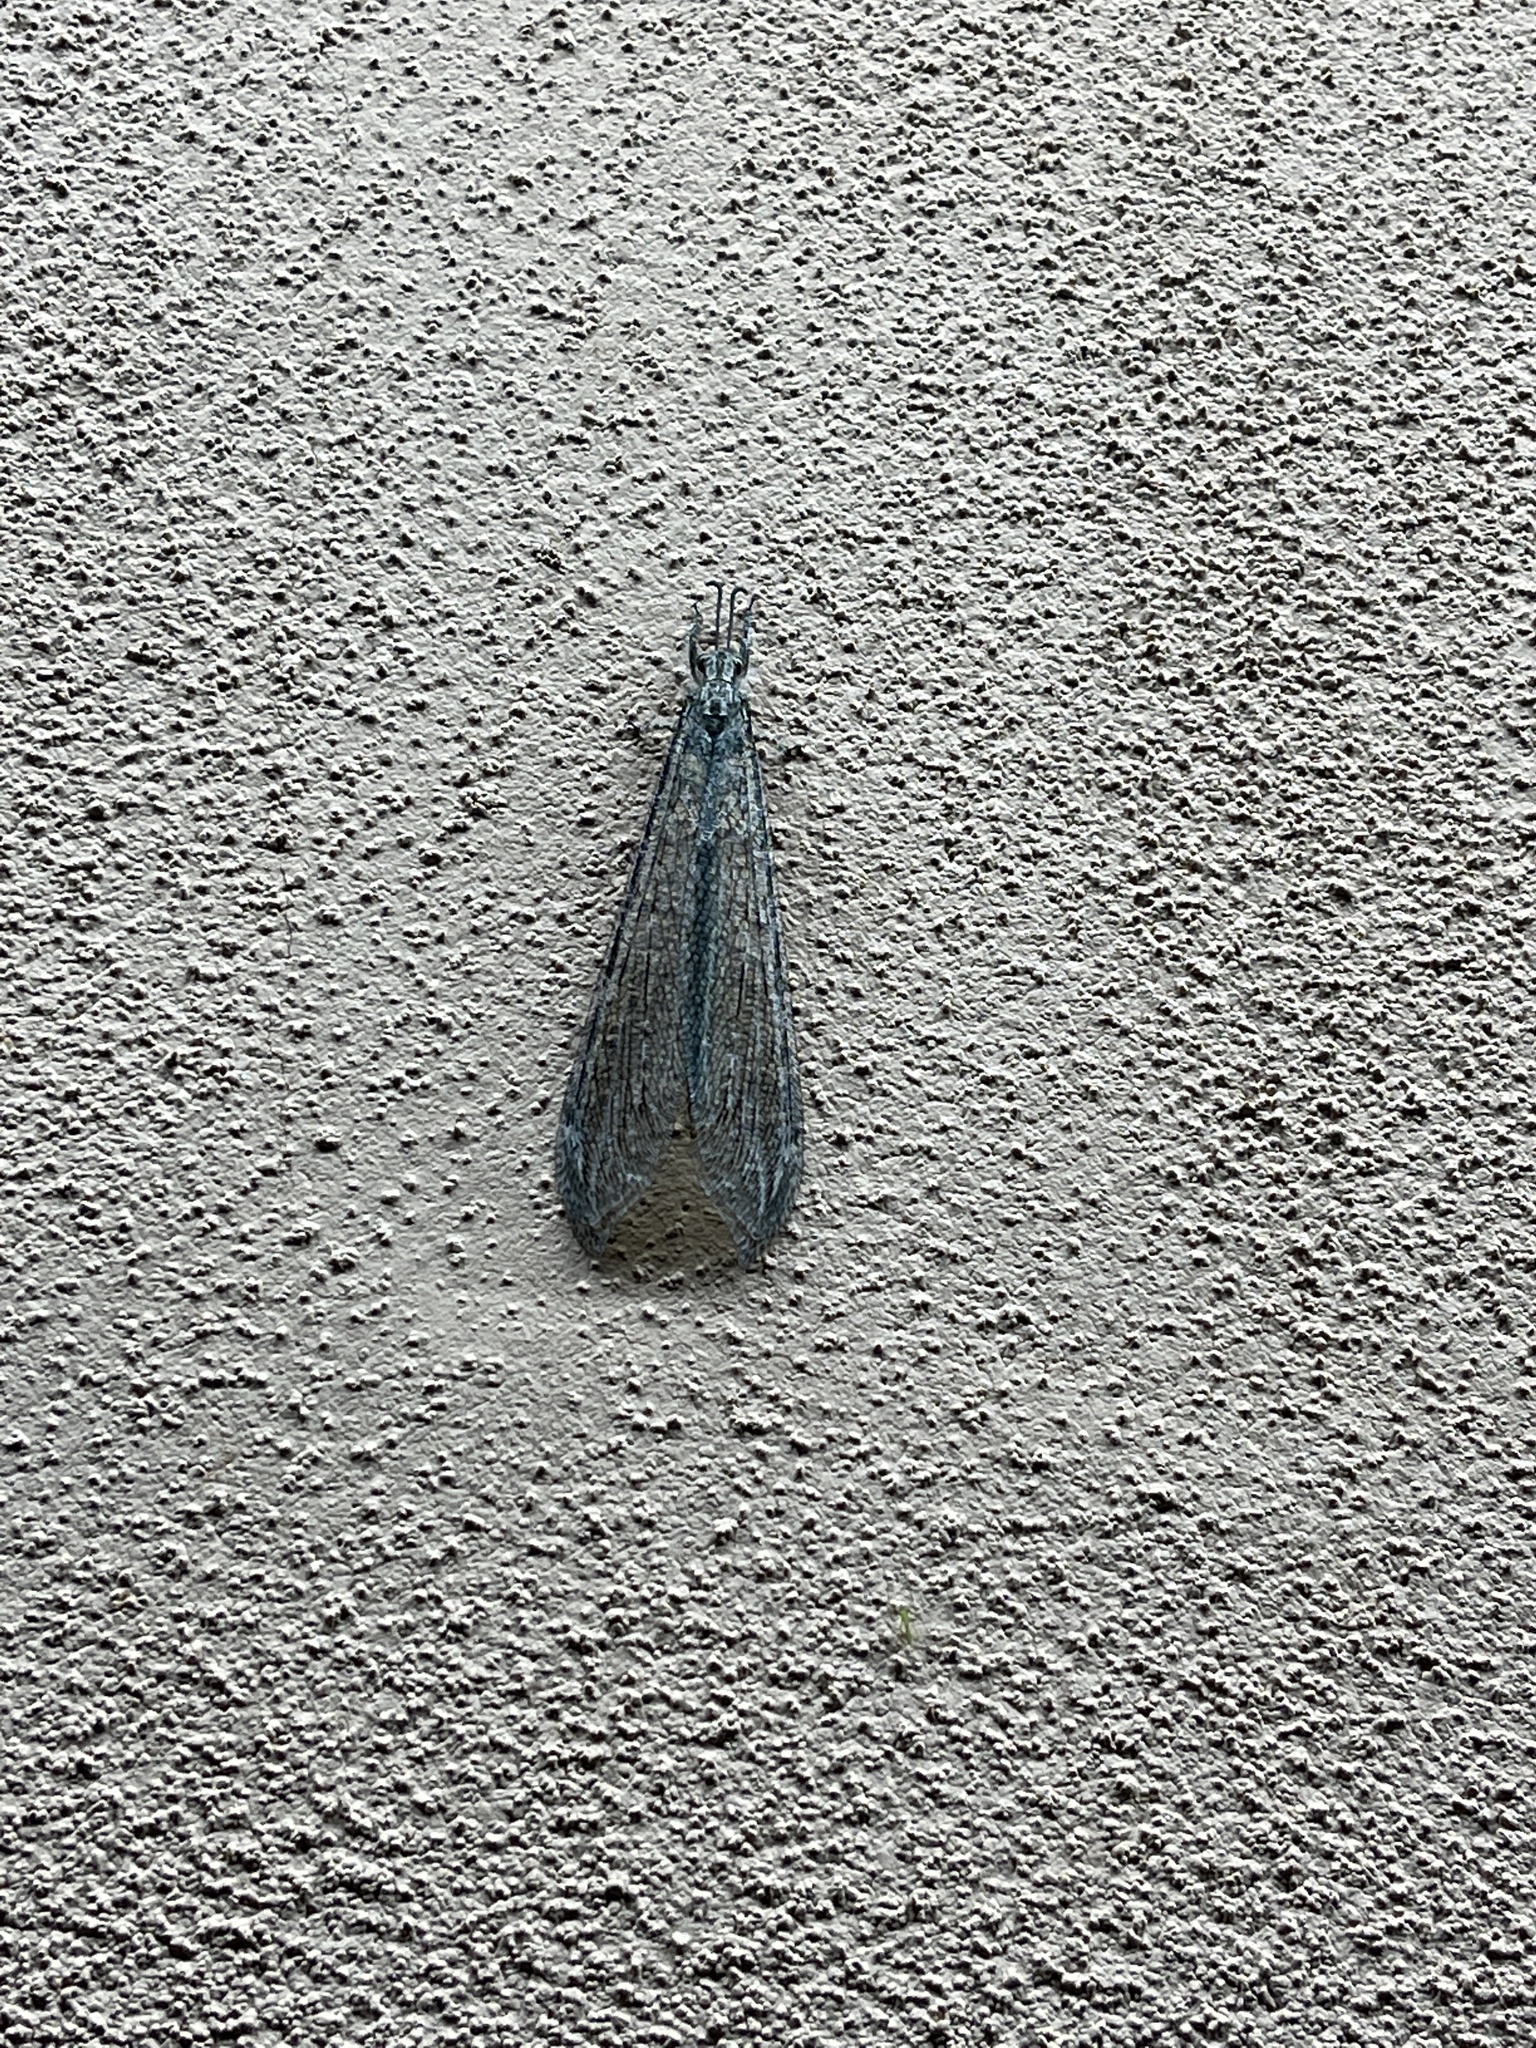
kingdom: Animalia
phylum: Arthropoda
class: Insecta
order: Neuroptera
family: Myrmeleontidae
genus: Vella
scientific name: Vella fallax
